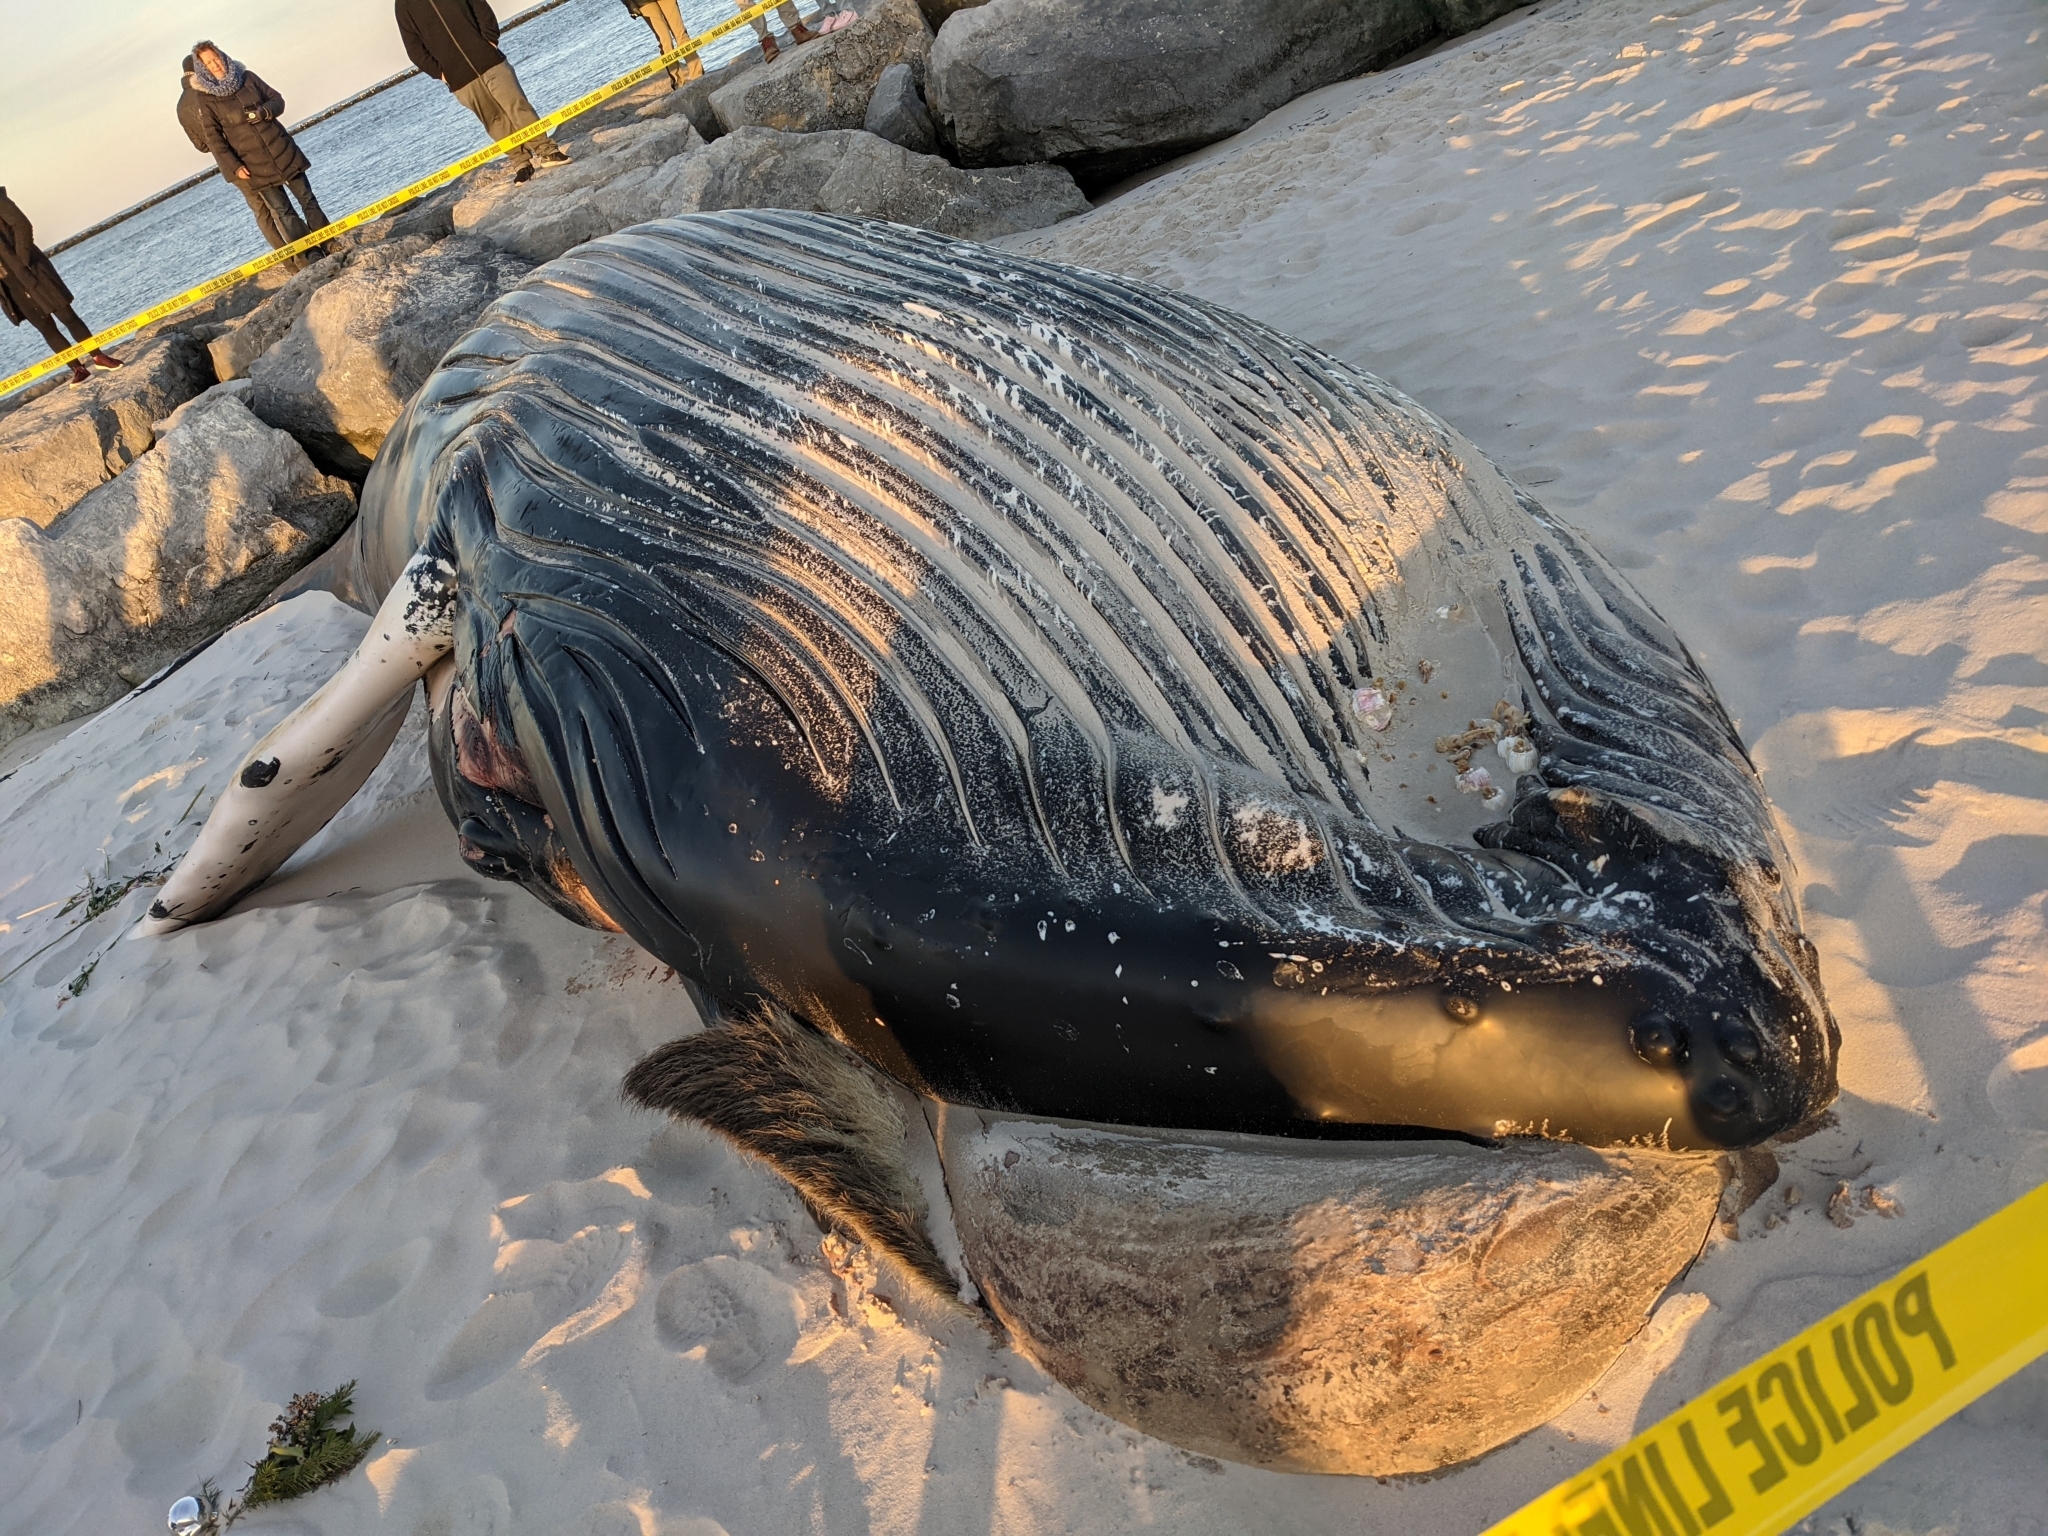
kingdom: Animalia
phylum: Chordata
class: Mammalia
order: Cetacea
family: Balaenopteridae
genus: Megaptera
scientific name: Megaptera novaeangliae
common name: Humpback whale
